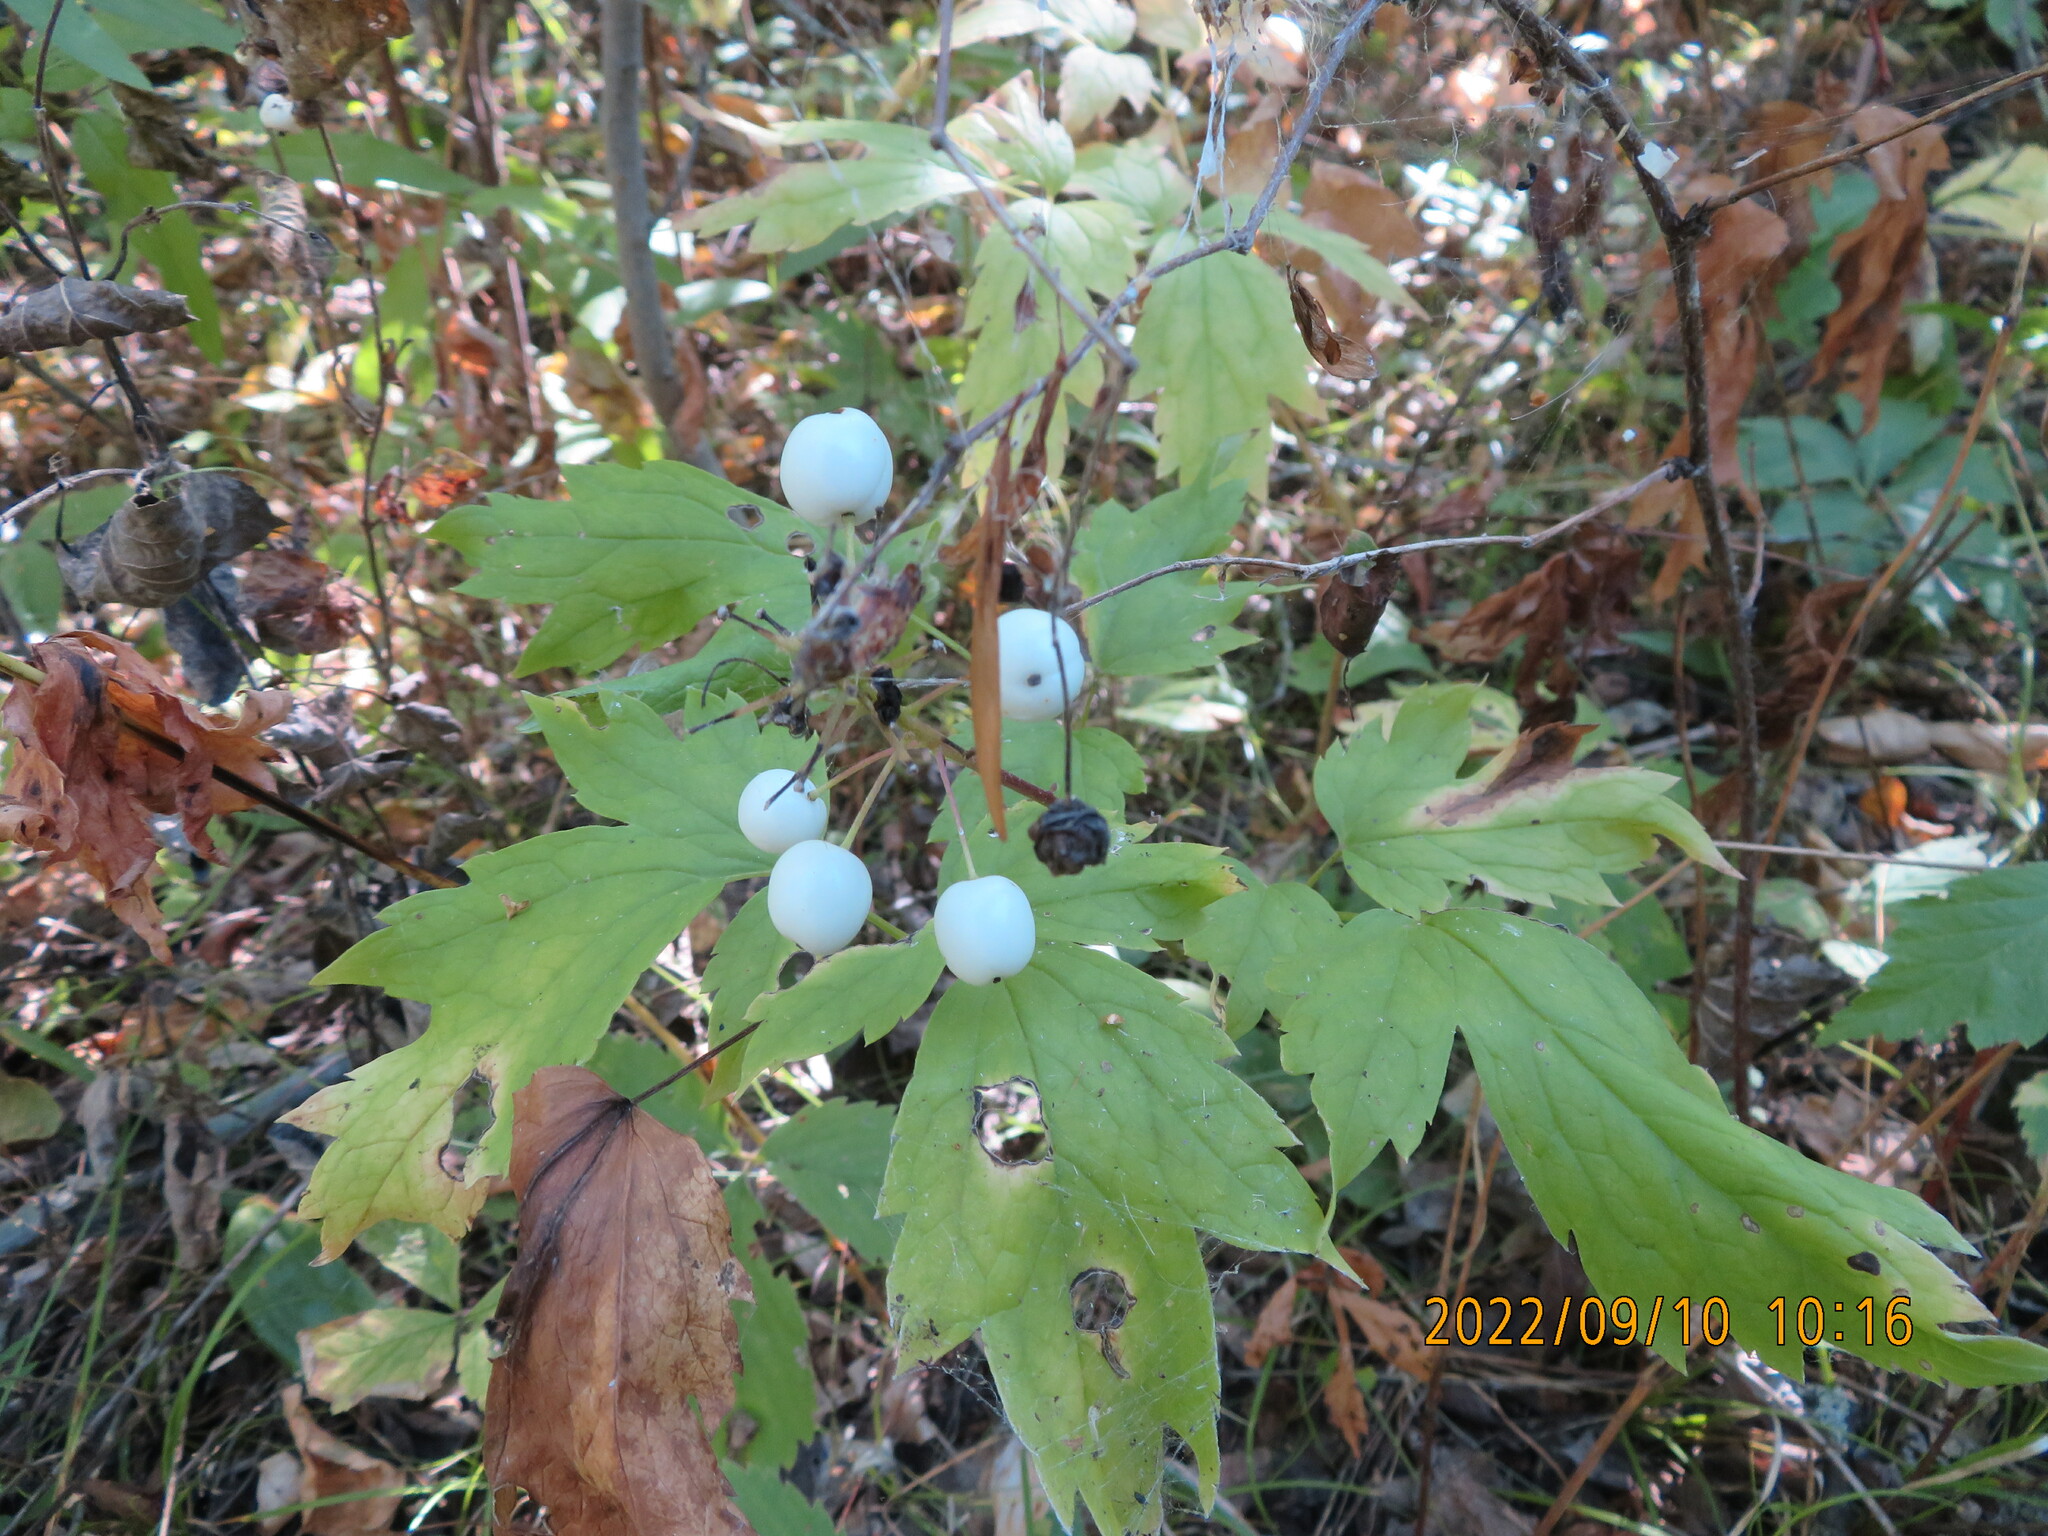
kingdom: Plantae
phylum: Tracheophyta
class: Magnoliopsida
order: Ranunculales
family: Ranunculaceae
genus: Actaea
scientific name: Actaea rubra
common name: Red baneberry
